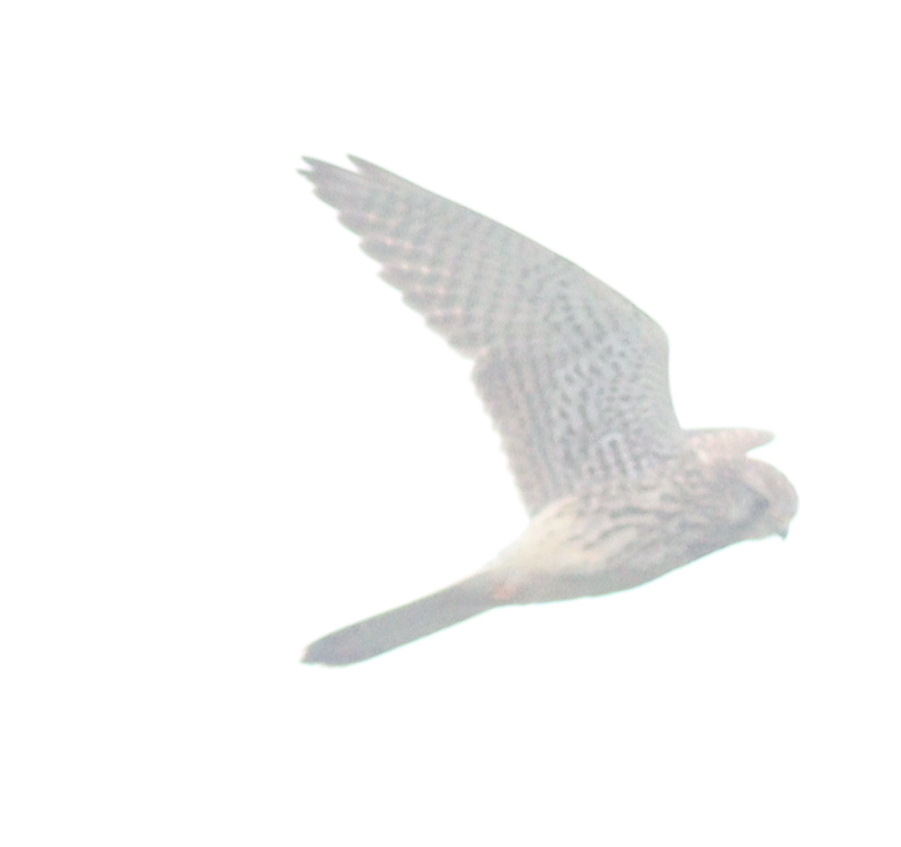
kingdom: Animalia
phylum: Chordata
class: Aves
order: Falconiformes
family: Falconidae
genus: Falco
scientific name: Falco tinnunculus
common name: Common kestrel
